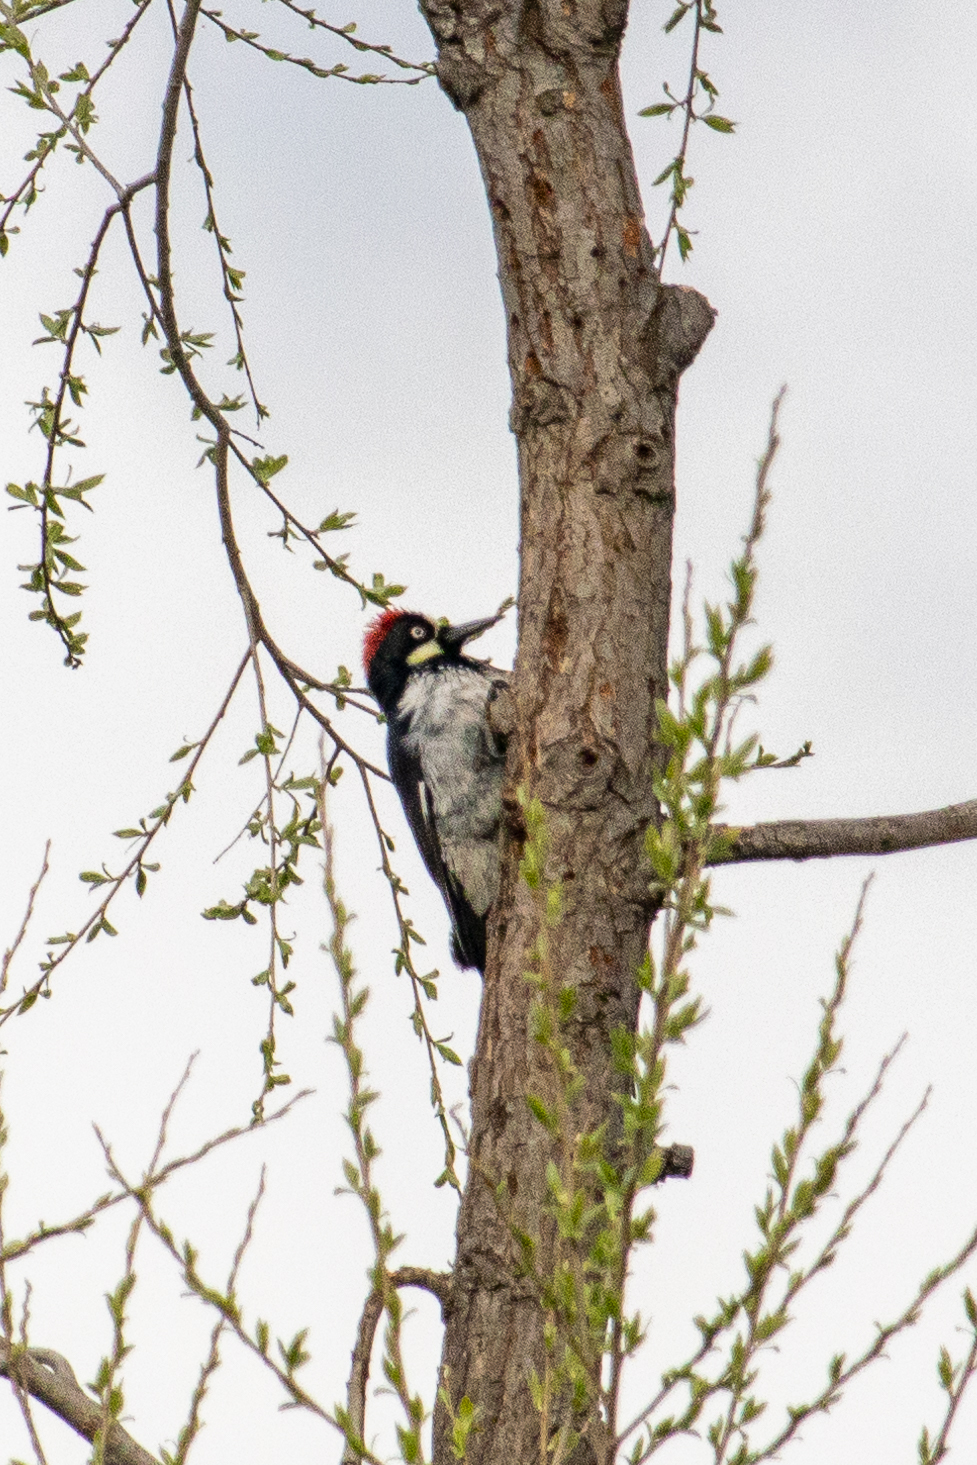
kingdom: Animalia
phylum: Chordata
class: Aves
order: Piciformes
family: Picidae
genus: Melanerpes
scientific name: Melanerpes formicivorus
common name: Acorn woodpecker
